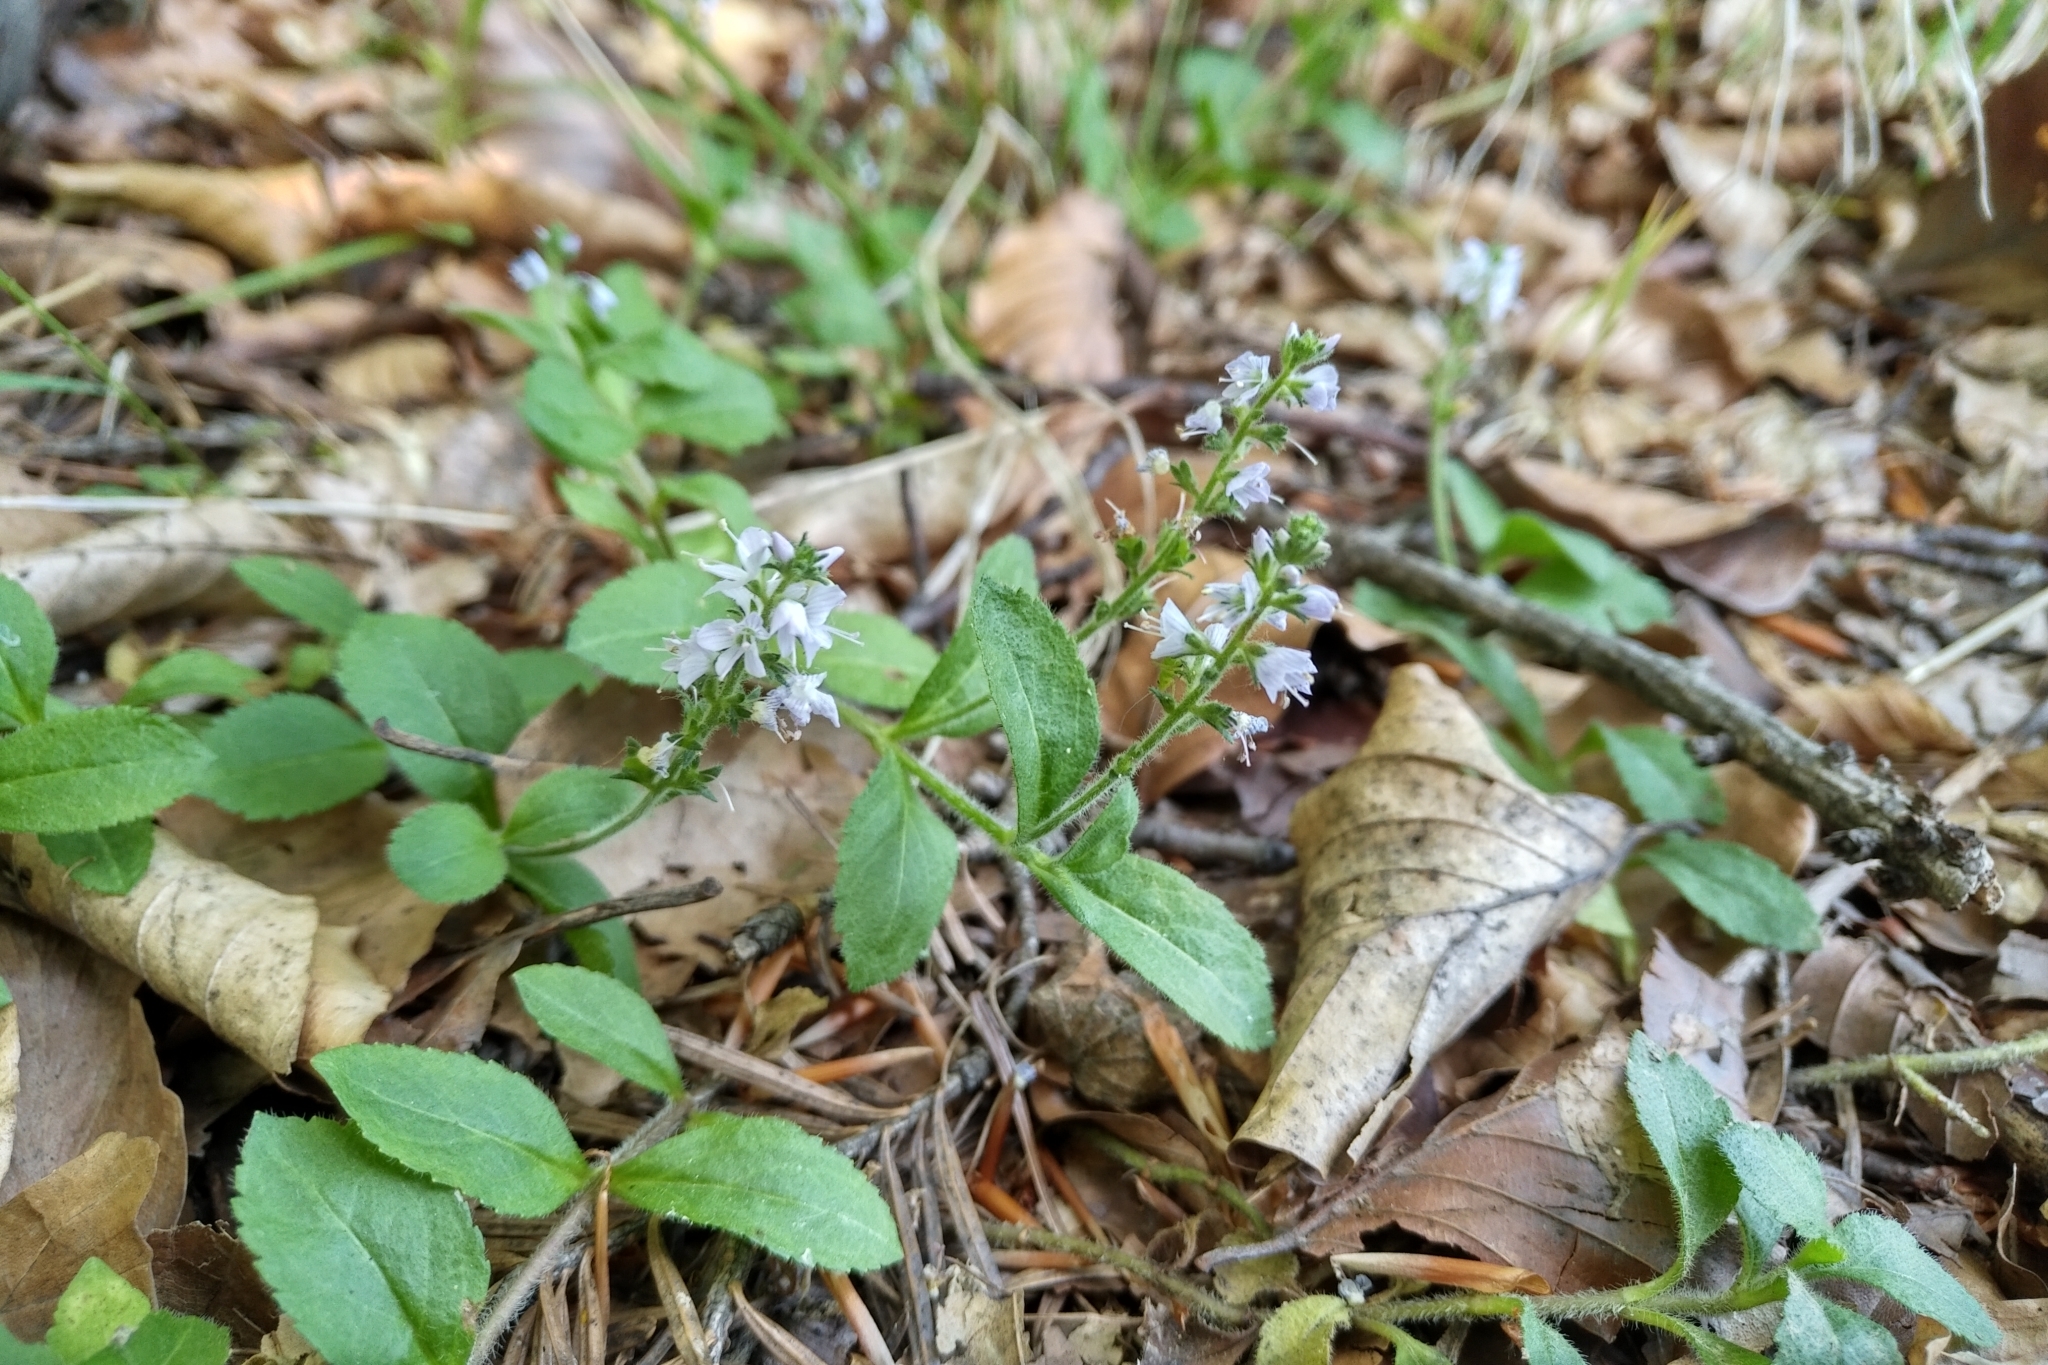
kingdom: Plantae
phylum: Tracheophyta
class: Magnoliopsida
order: Lamiales
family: Plantaginaceae
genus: Veronica
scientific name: Veronica officinalis
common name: Common speedwell
